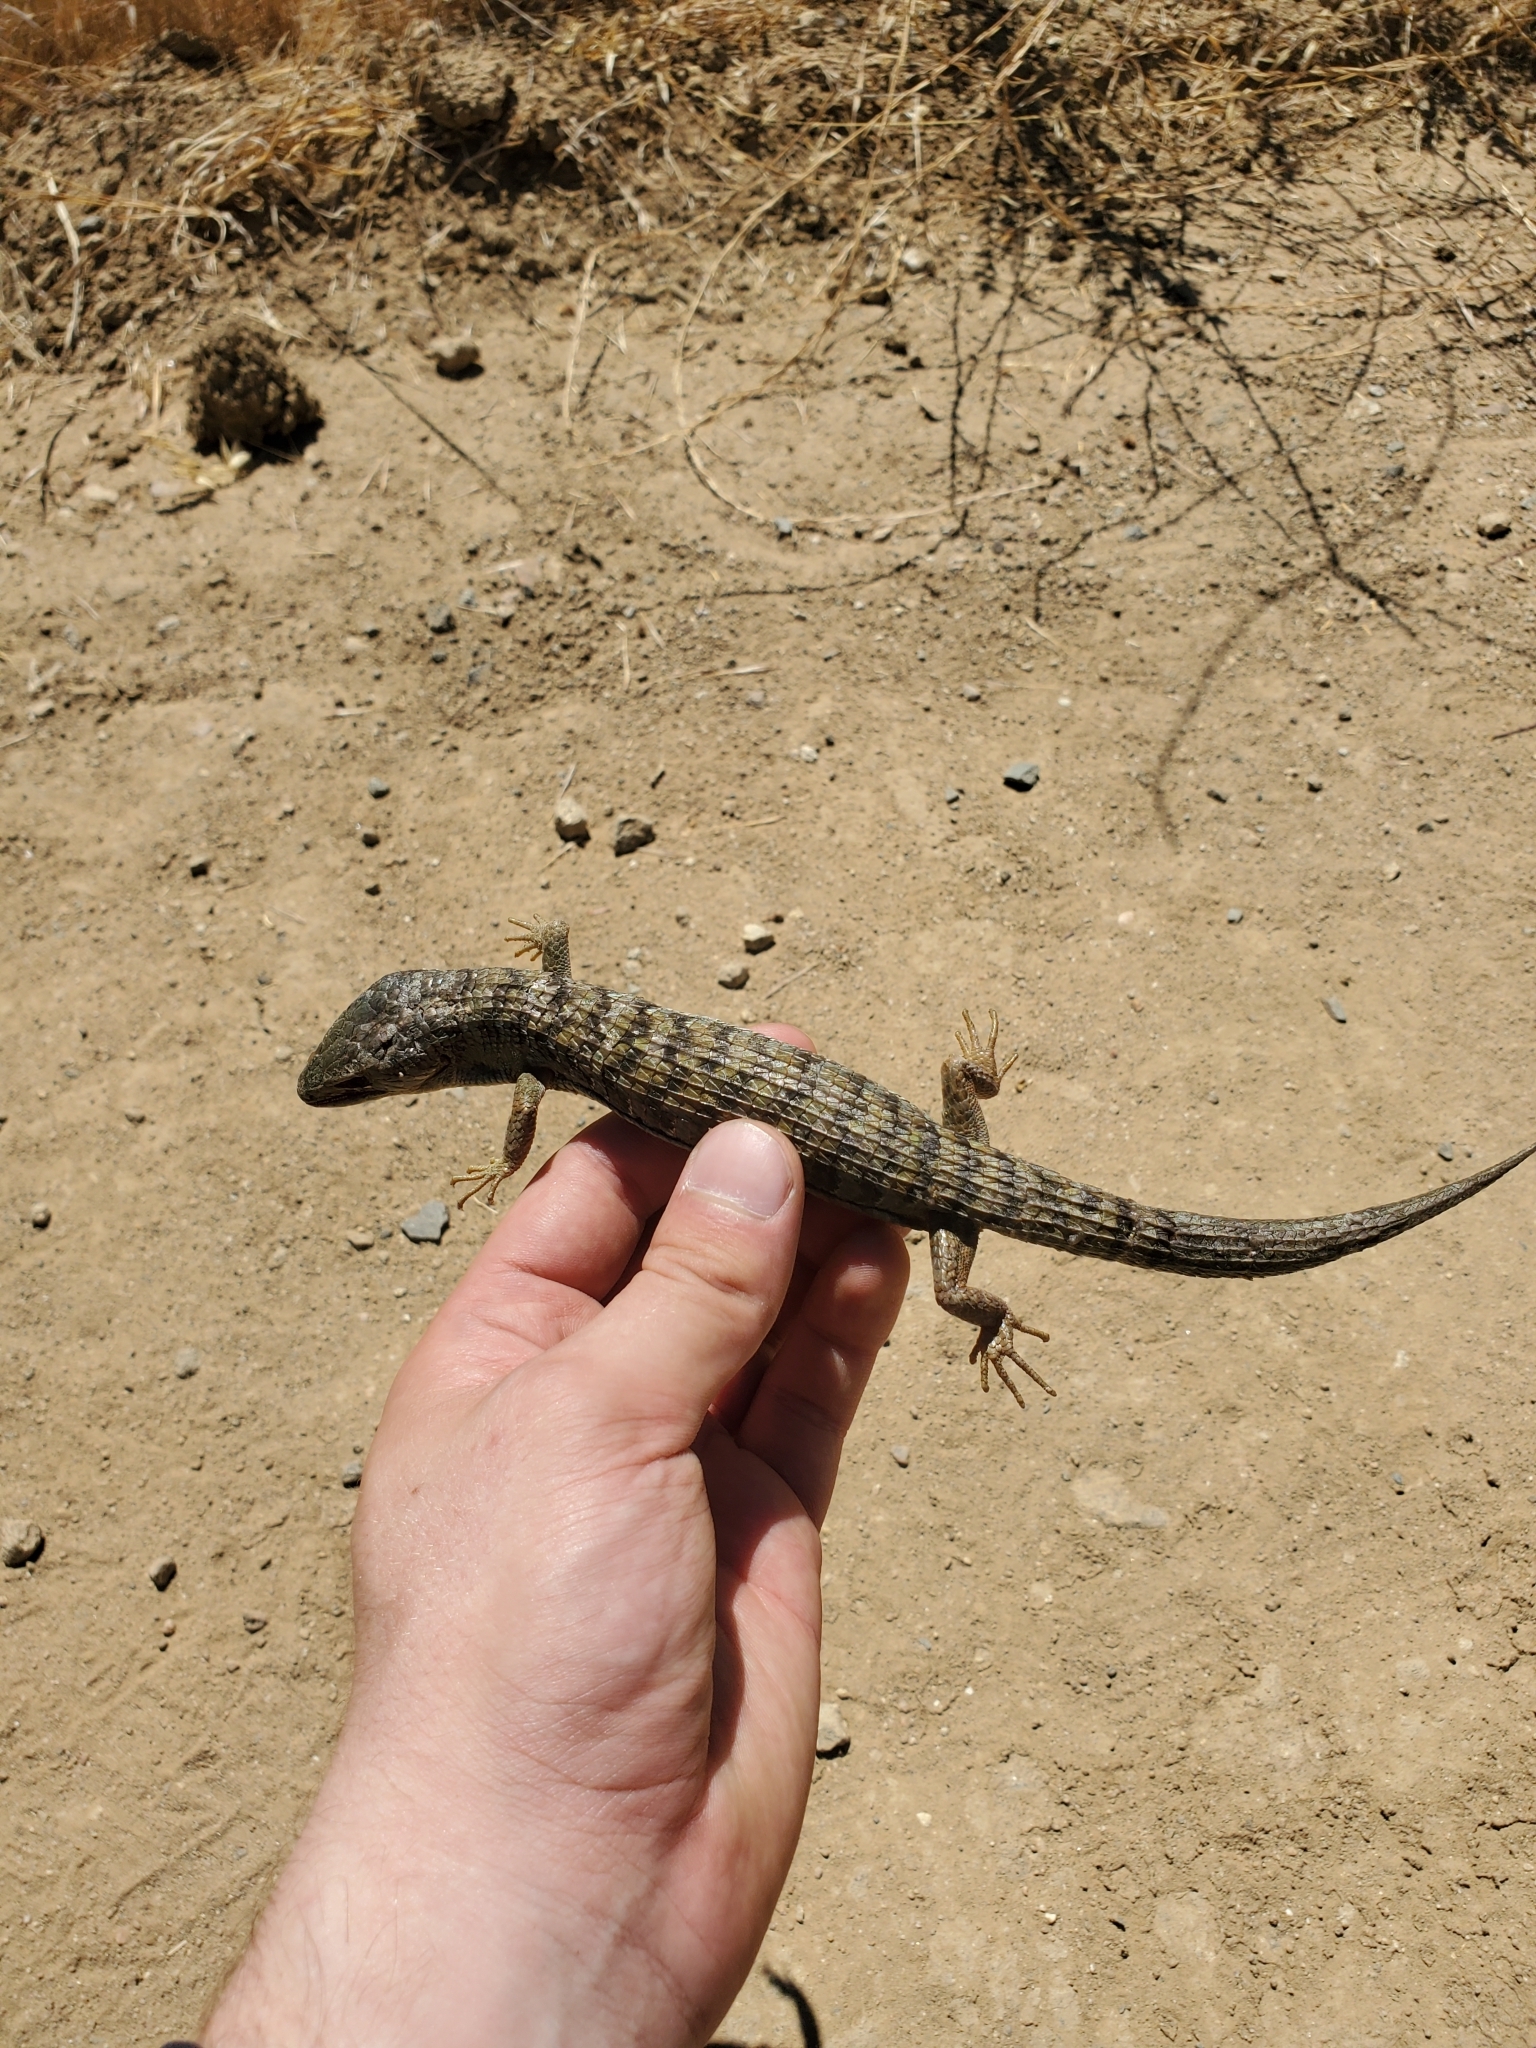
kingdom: Animalia
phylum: Chordata
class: Squamata
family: Anguidae
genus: Elgaria
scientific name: Elgaria multicarinata
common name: Southern alligator lizard
